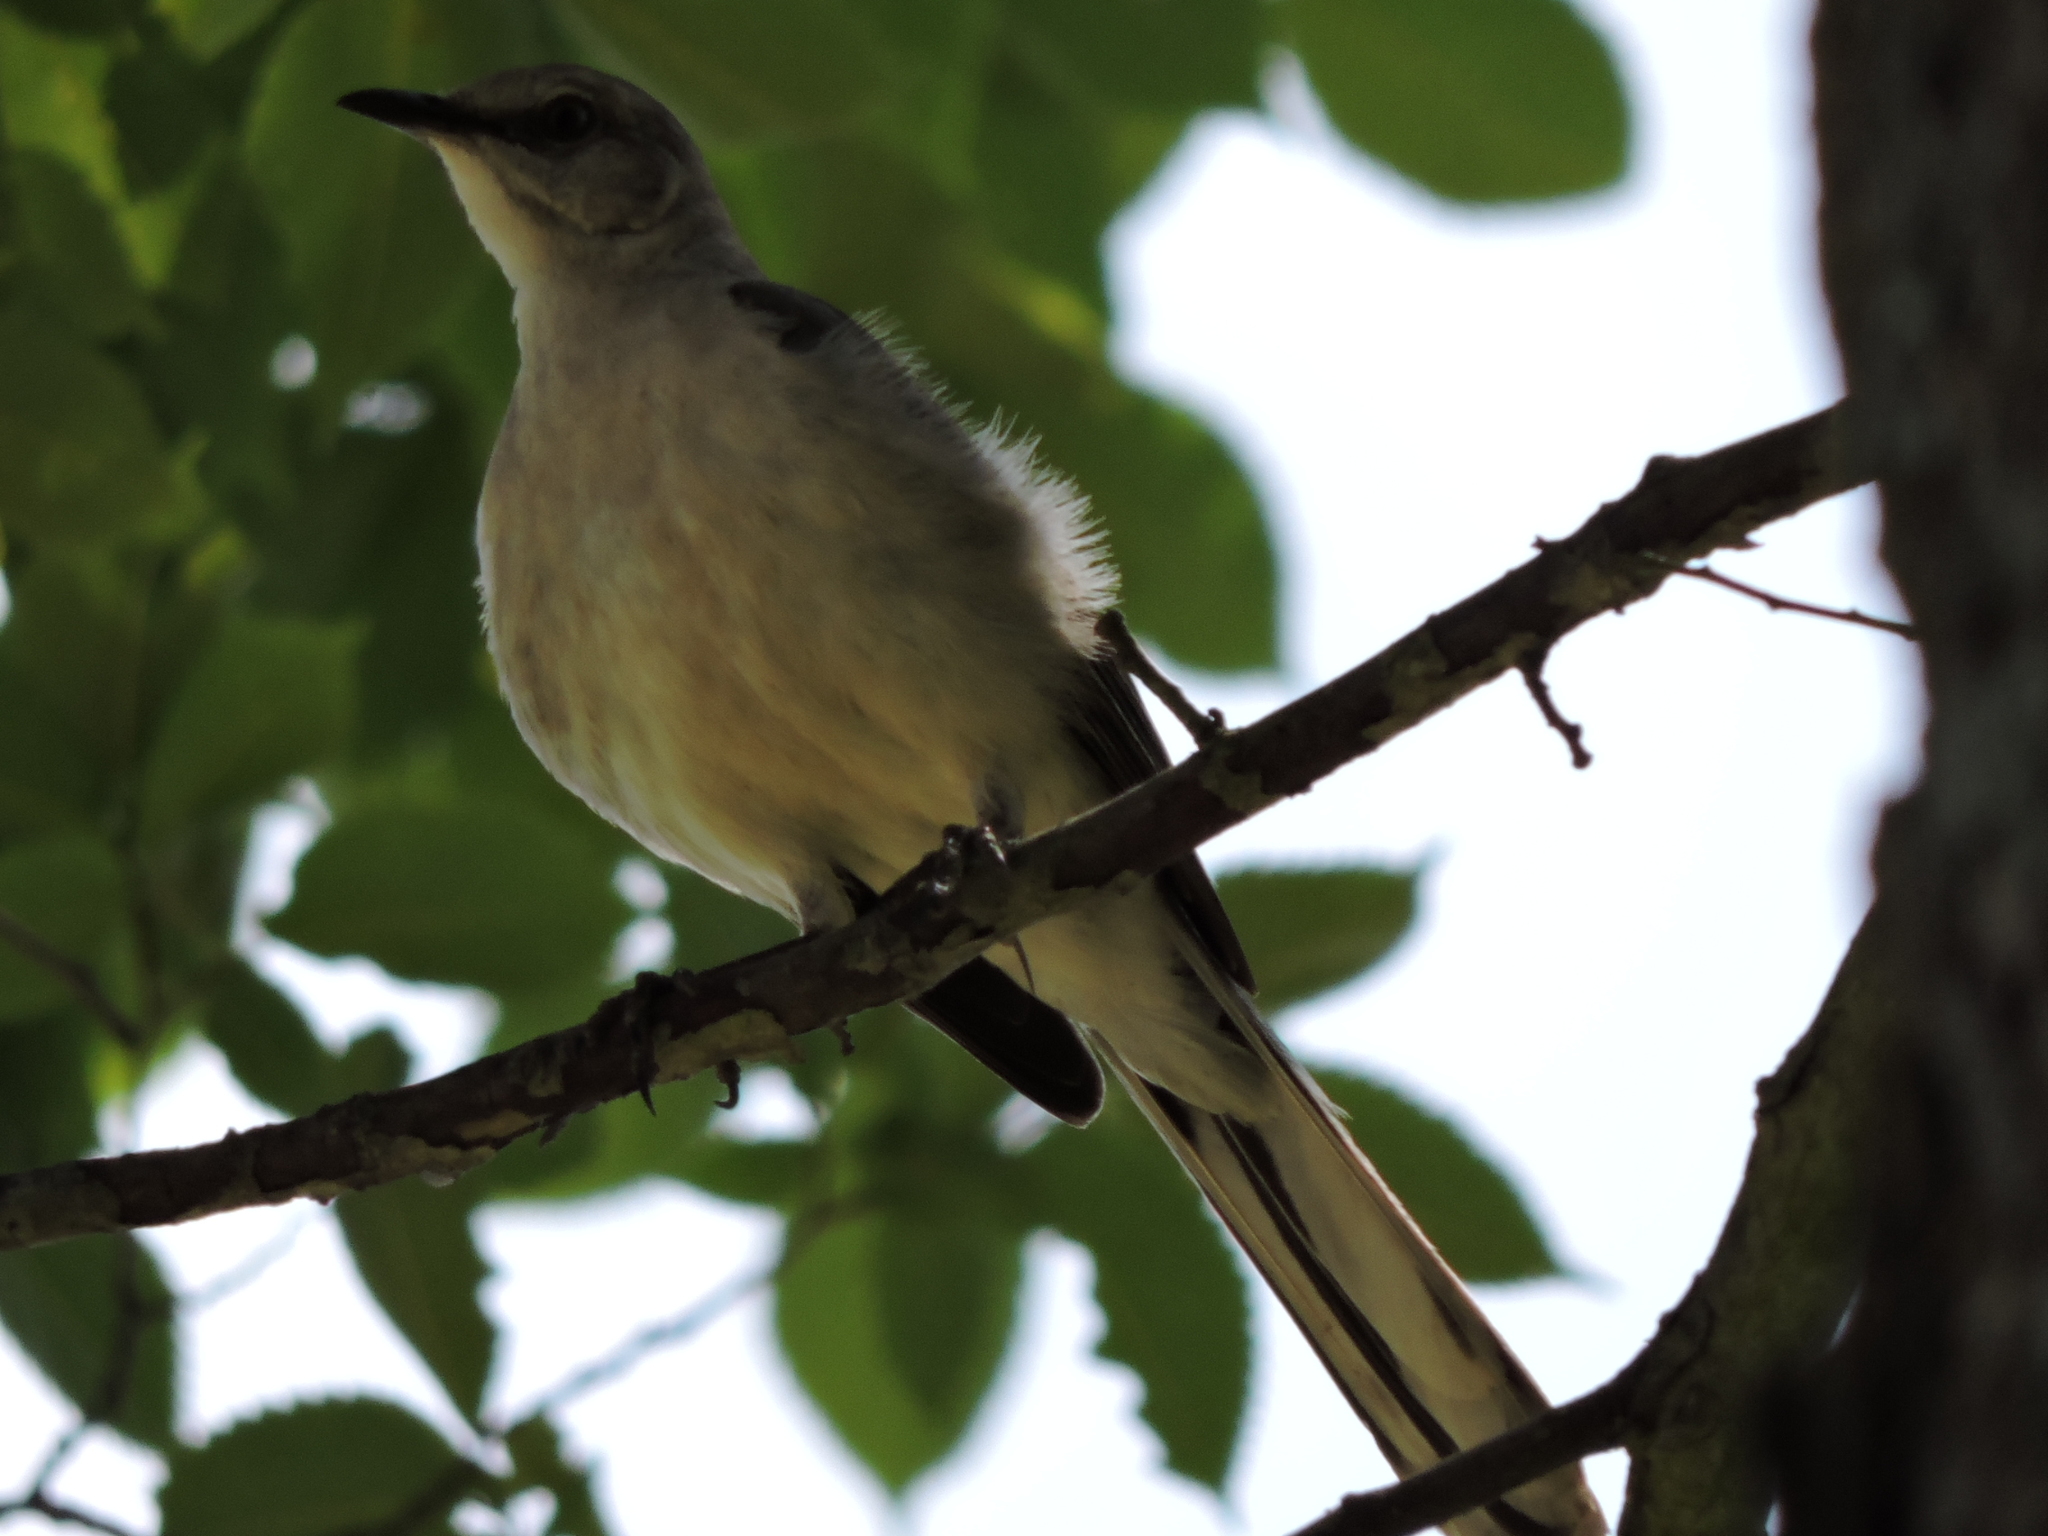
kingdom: Animalia
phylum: Chordata
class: Aves
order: Passeriformes
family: Mimidae
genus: Mimus
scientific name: Mimus polyglottos
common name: Northern mockingbird
